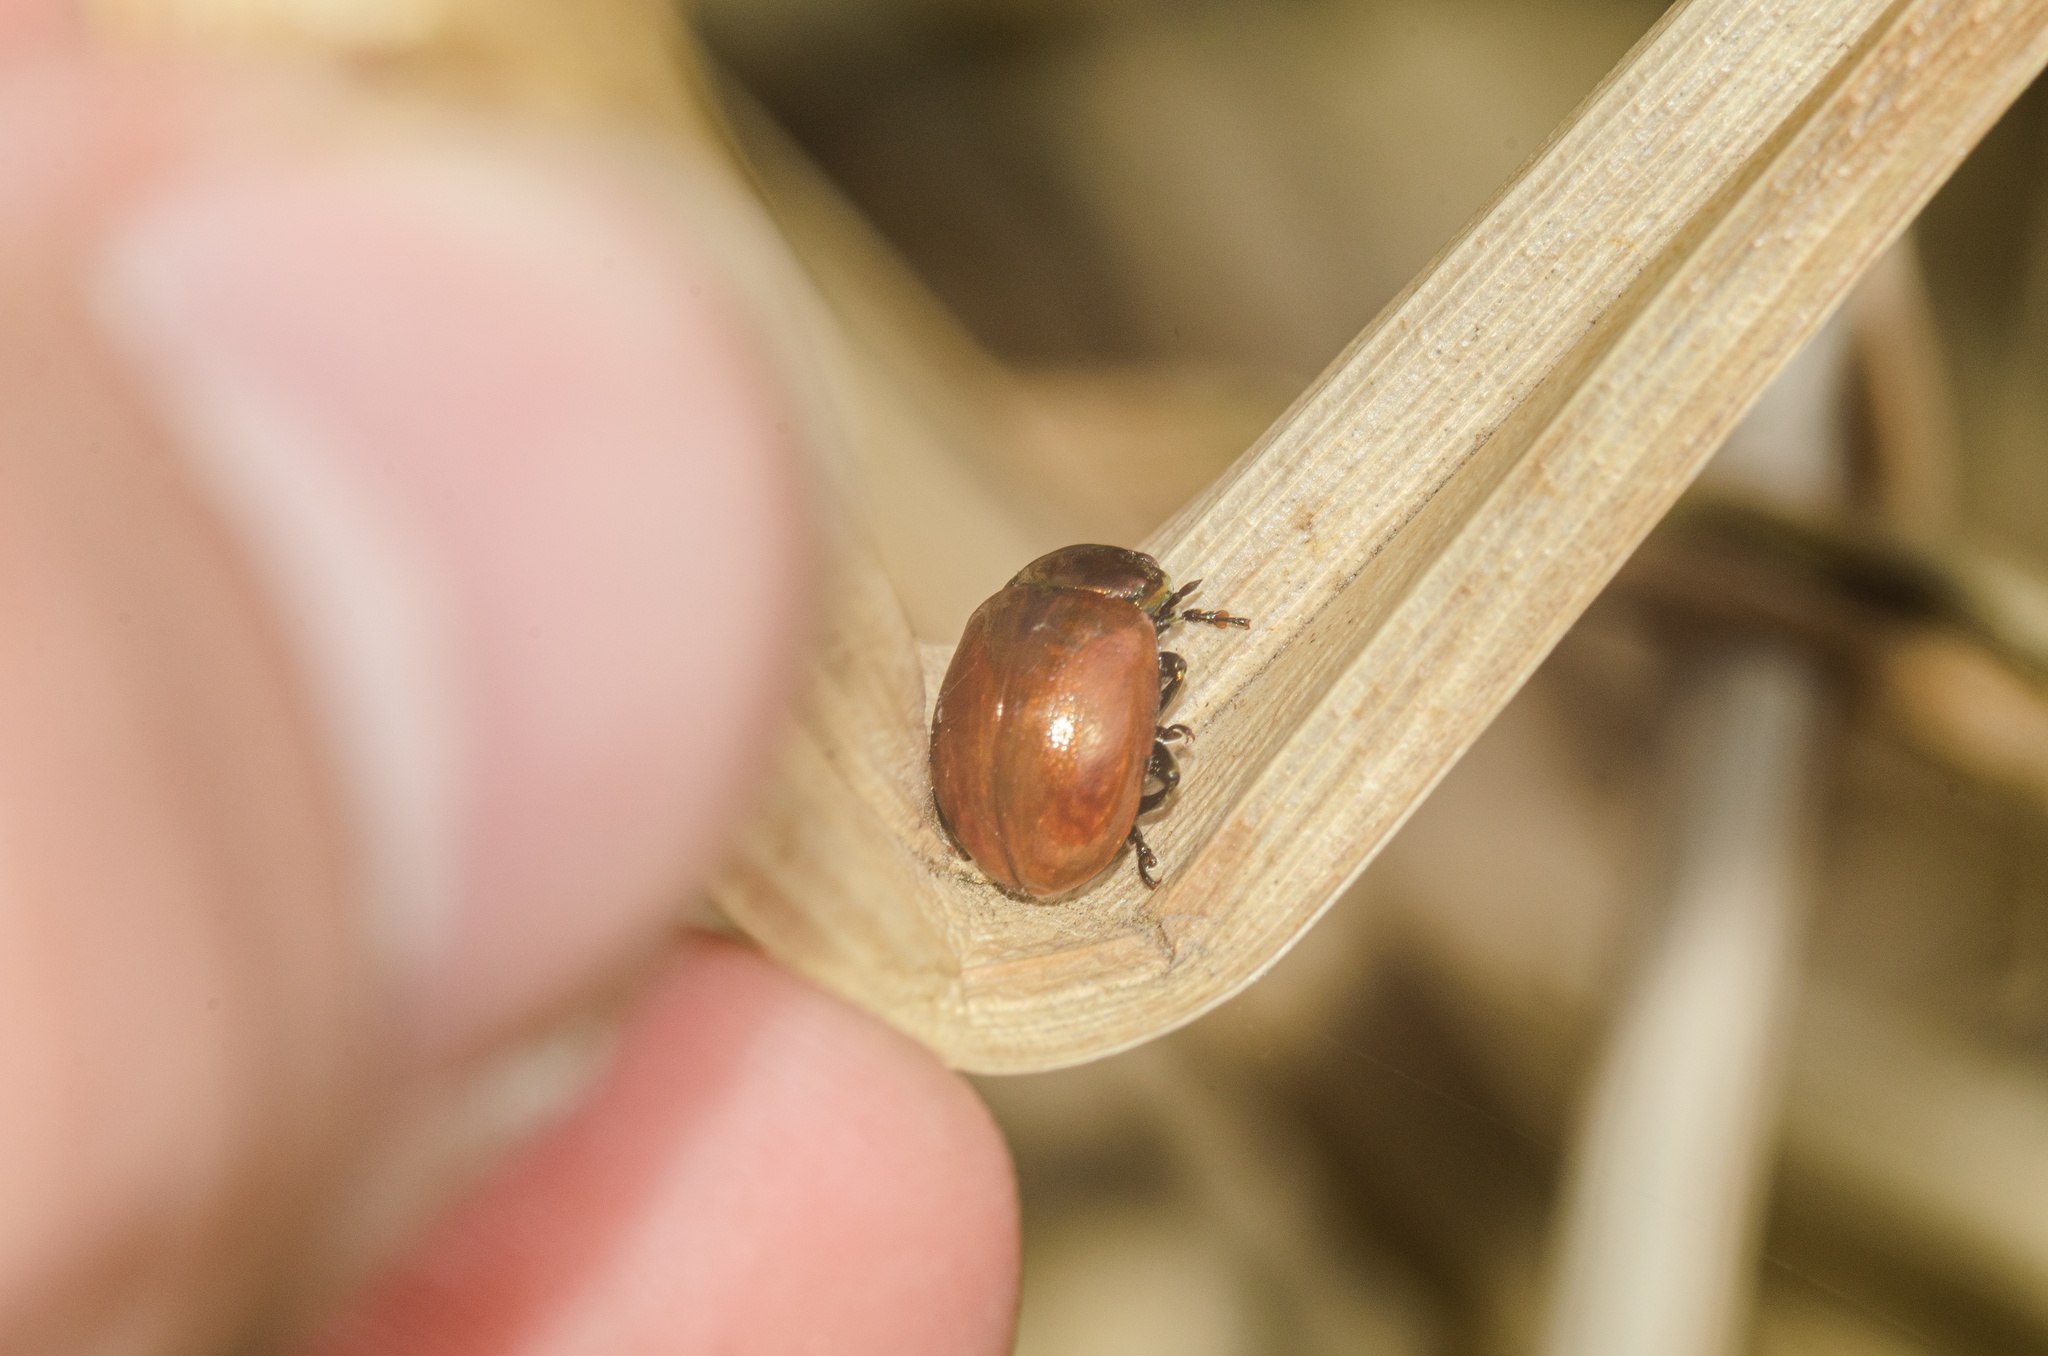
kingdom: Animalia
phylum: Arthropoda
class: Insecta
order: Coleoptera
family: Chrysomelidae
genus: Chrysomela
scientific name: Chrysomela polita
